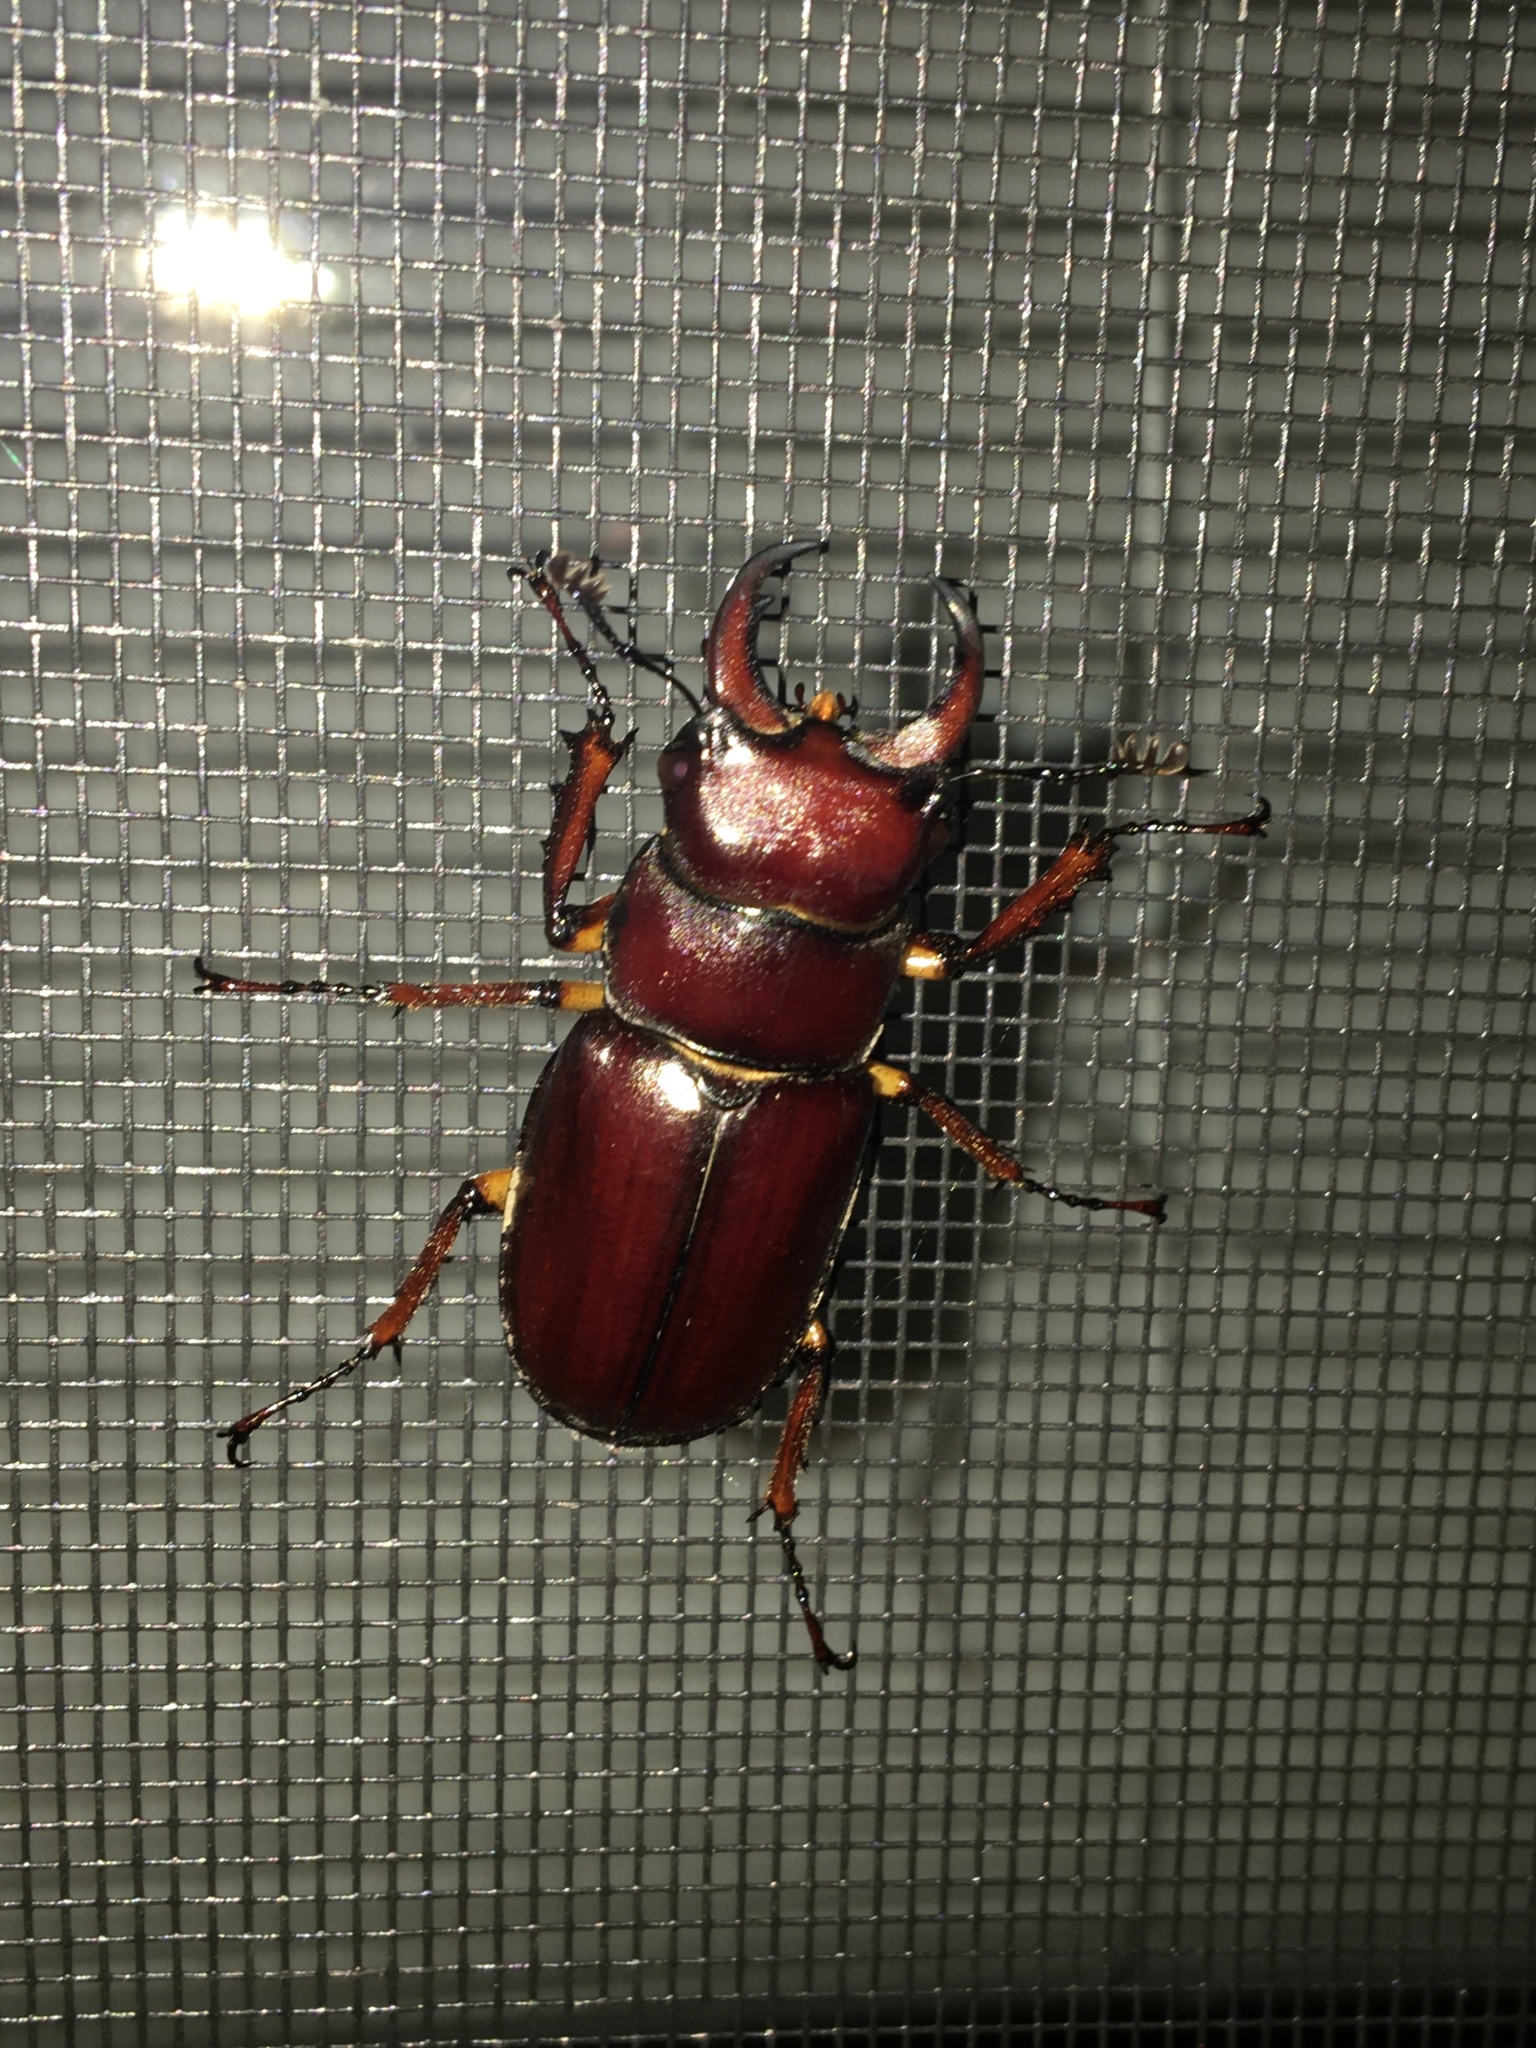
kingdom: Animalia
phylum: Arthropoda
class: Insecta
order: Coleoptera
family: Lucanidae
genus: Lucanus
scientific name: Lucanus capreolus
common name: Stag beetle
